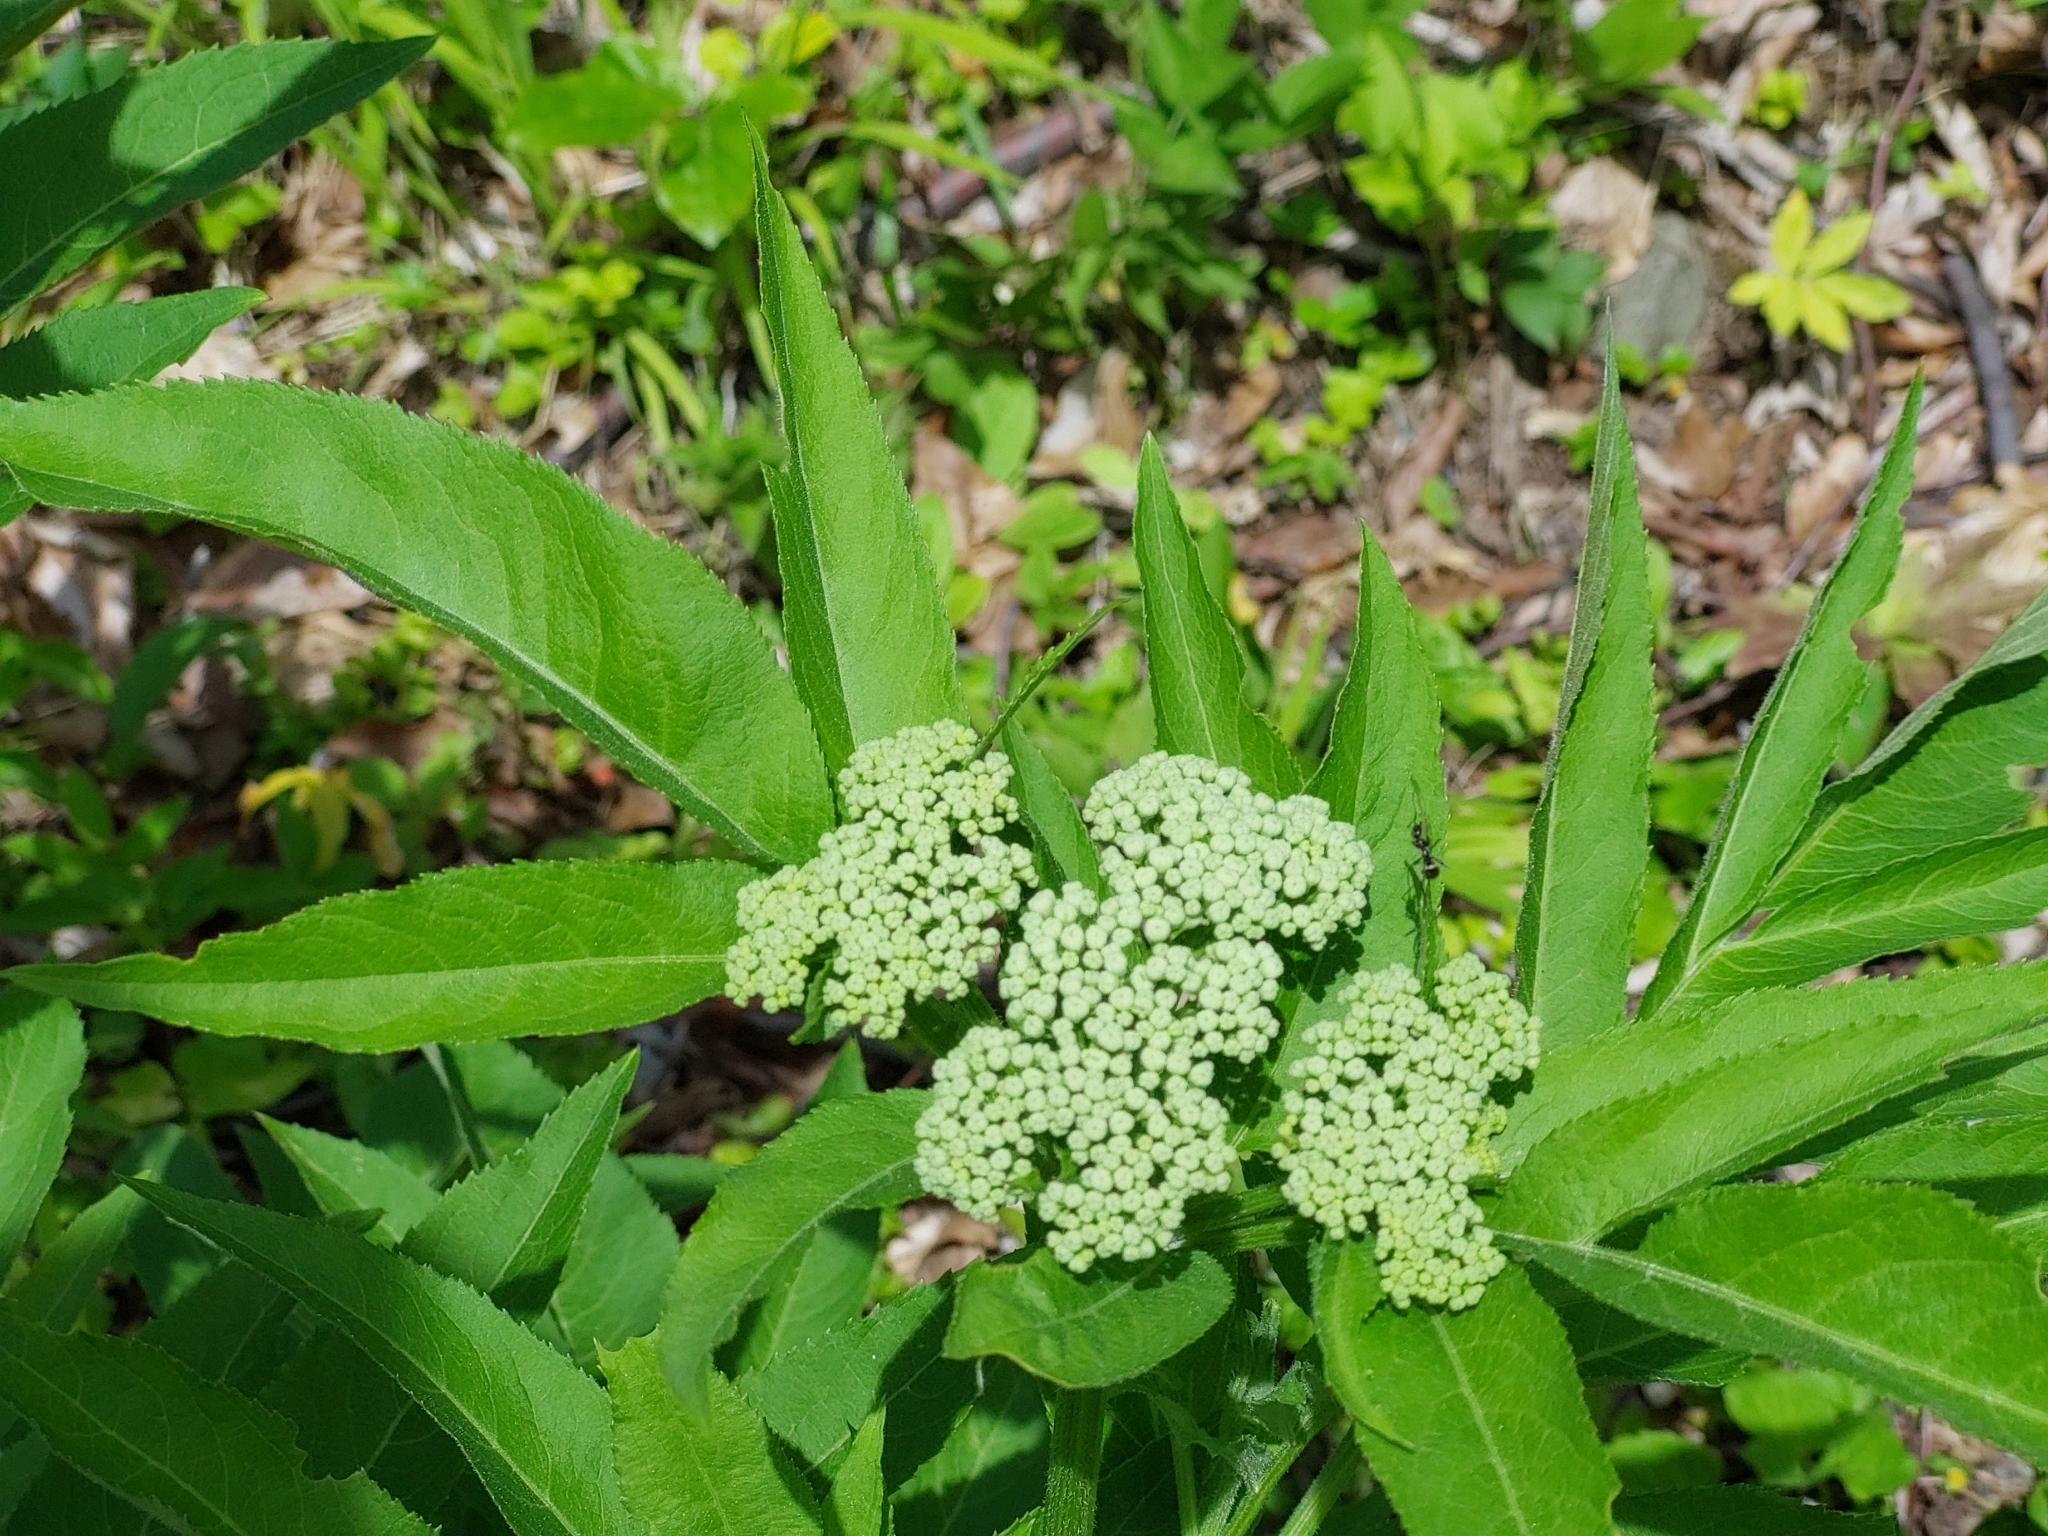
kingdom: Plantae
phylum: Tracheophyta
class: Magnoliopsida
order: Dipsacales
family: Viburnaceae
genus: Sambucus
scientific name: Sambucus ebulus
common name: Dwarf elder
